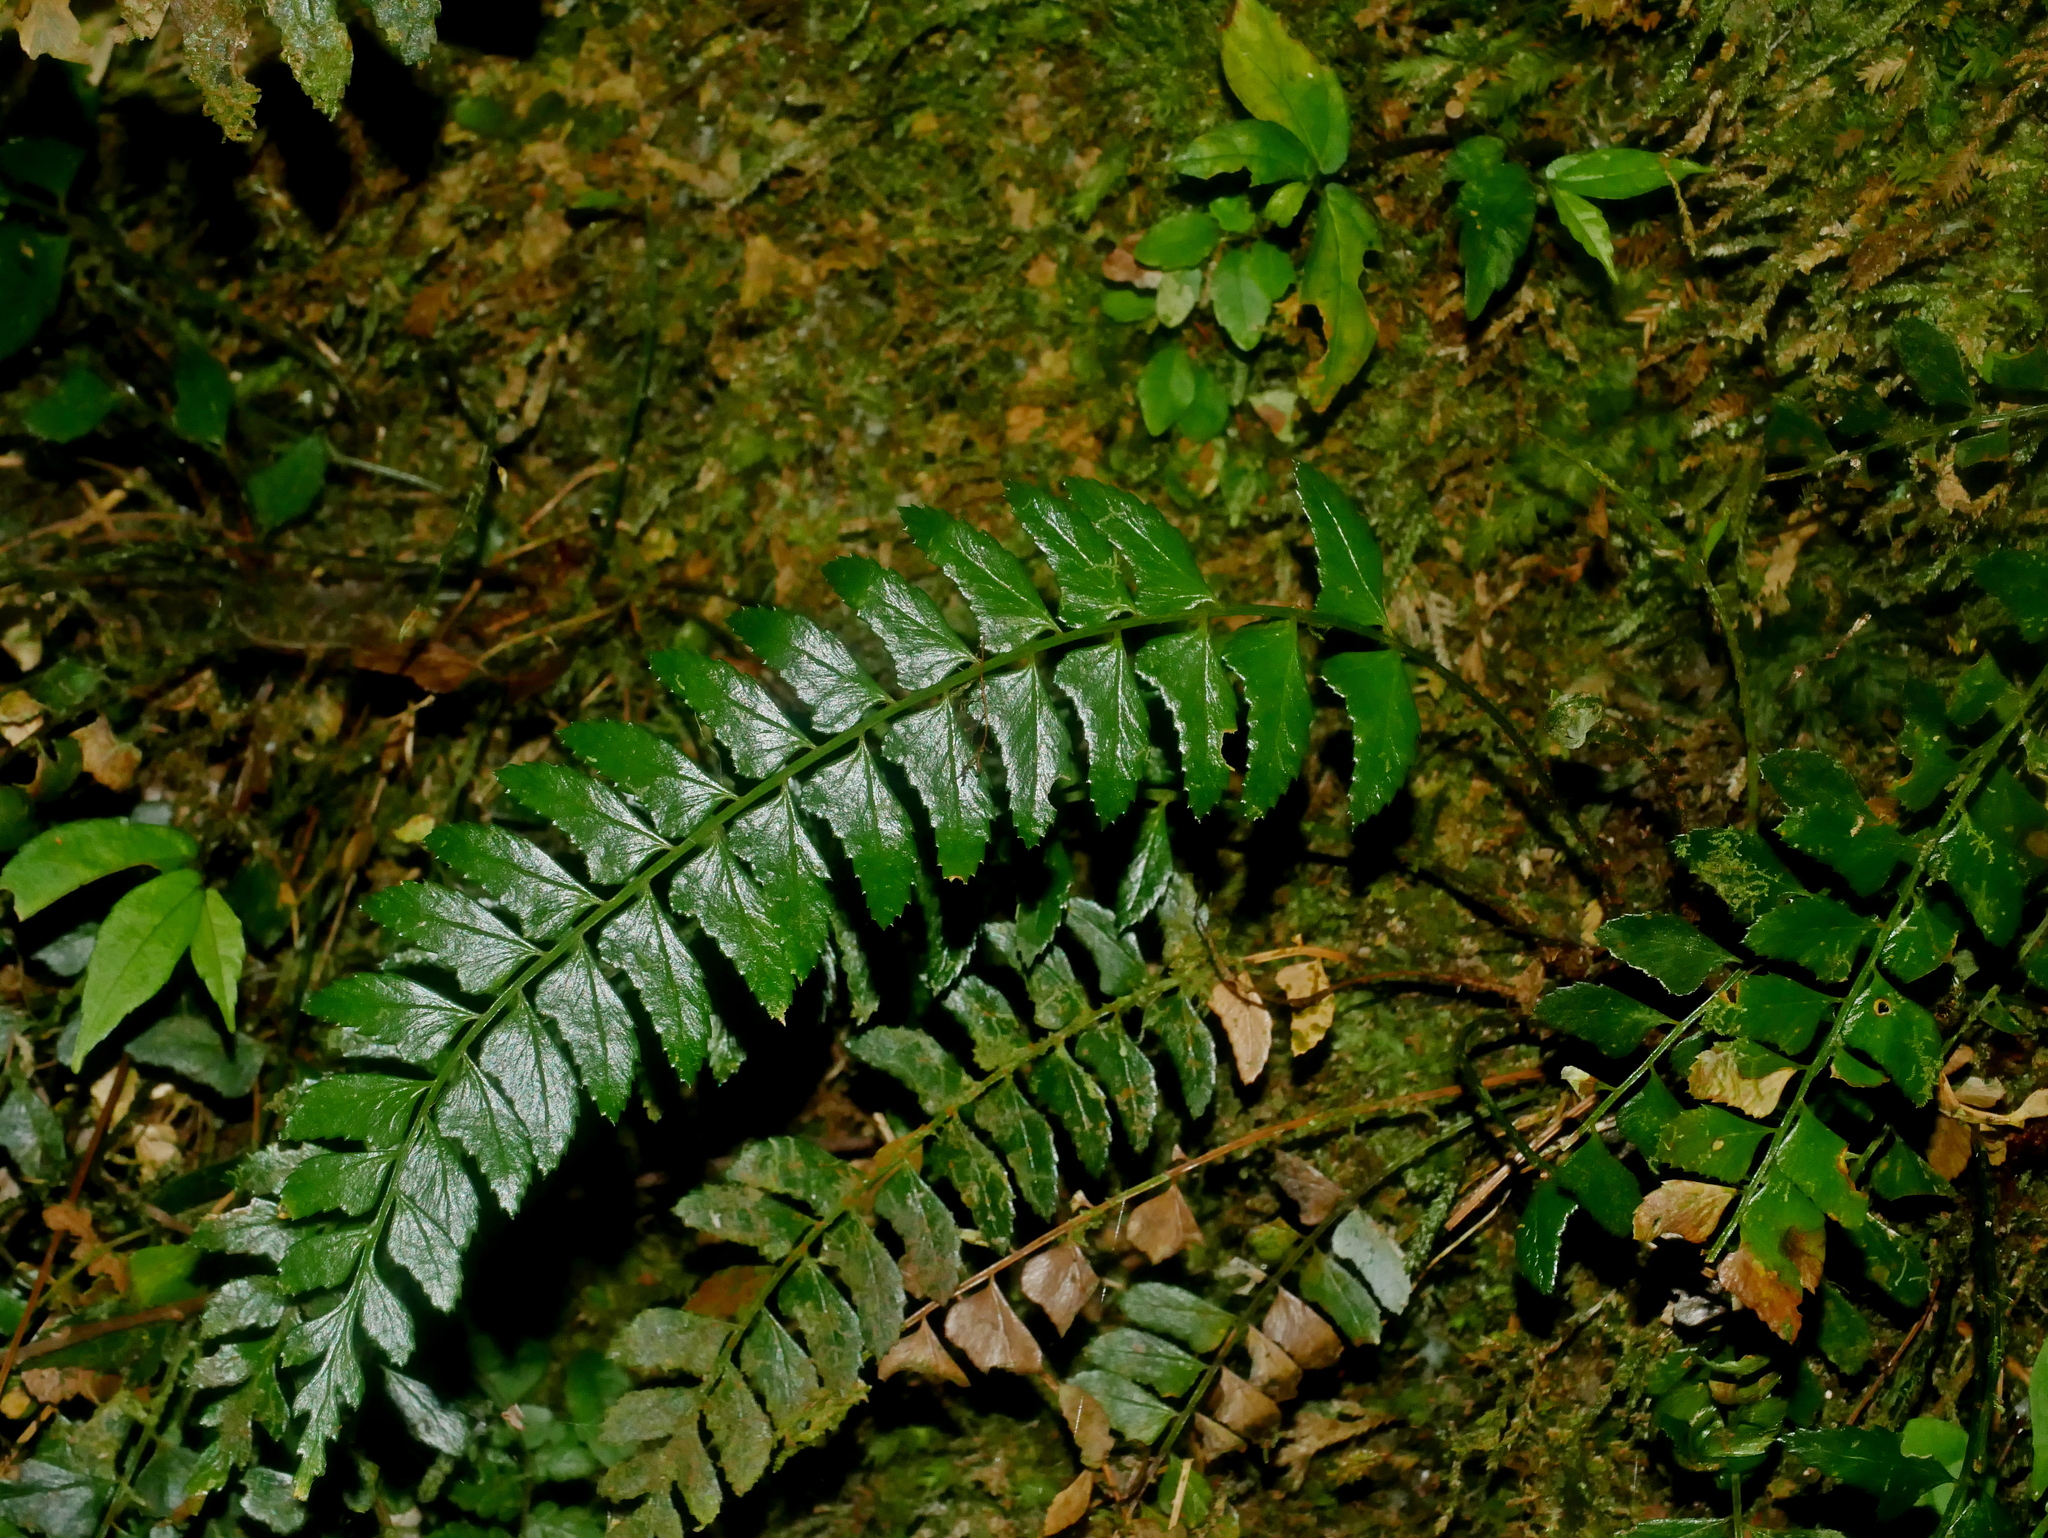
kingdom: Plantae
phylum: Tracheophyta
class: Polypodiopsida
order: Polypodiales
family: Dryopteridaceae
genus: Polystichum
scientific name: Polystichum obliquum
